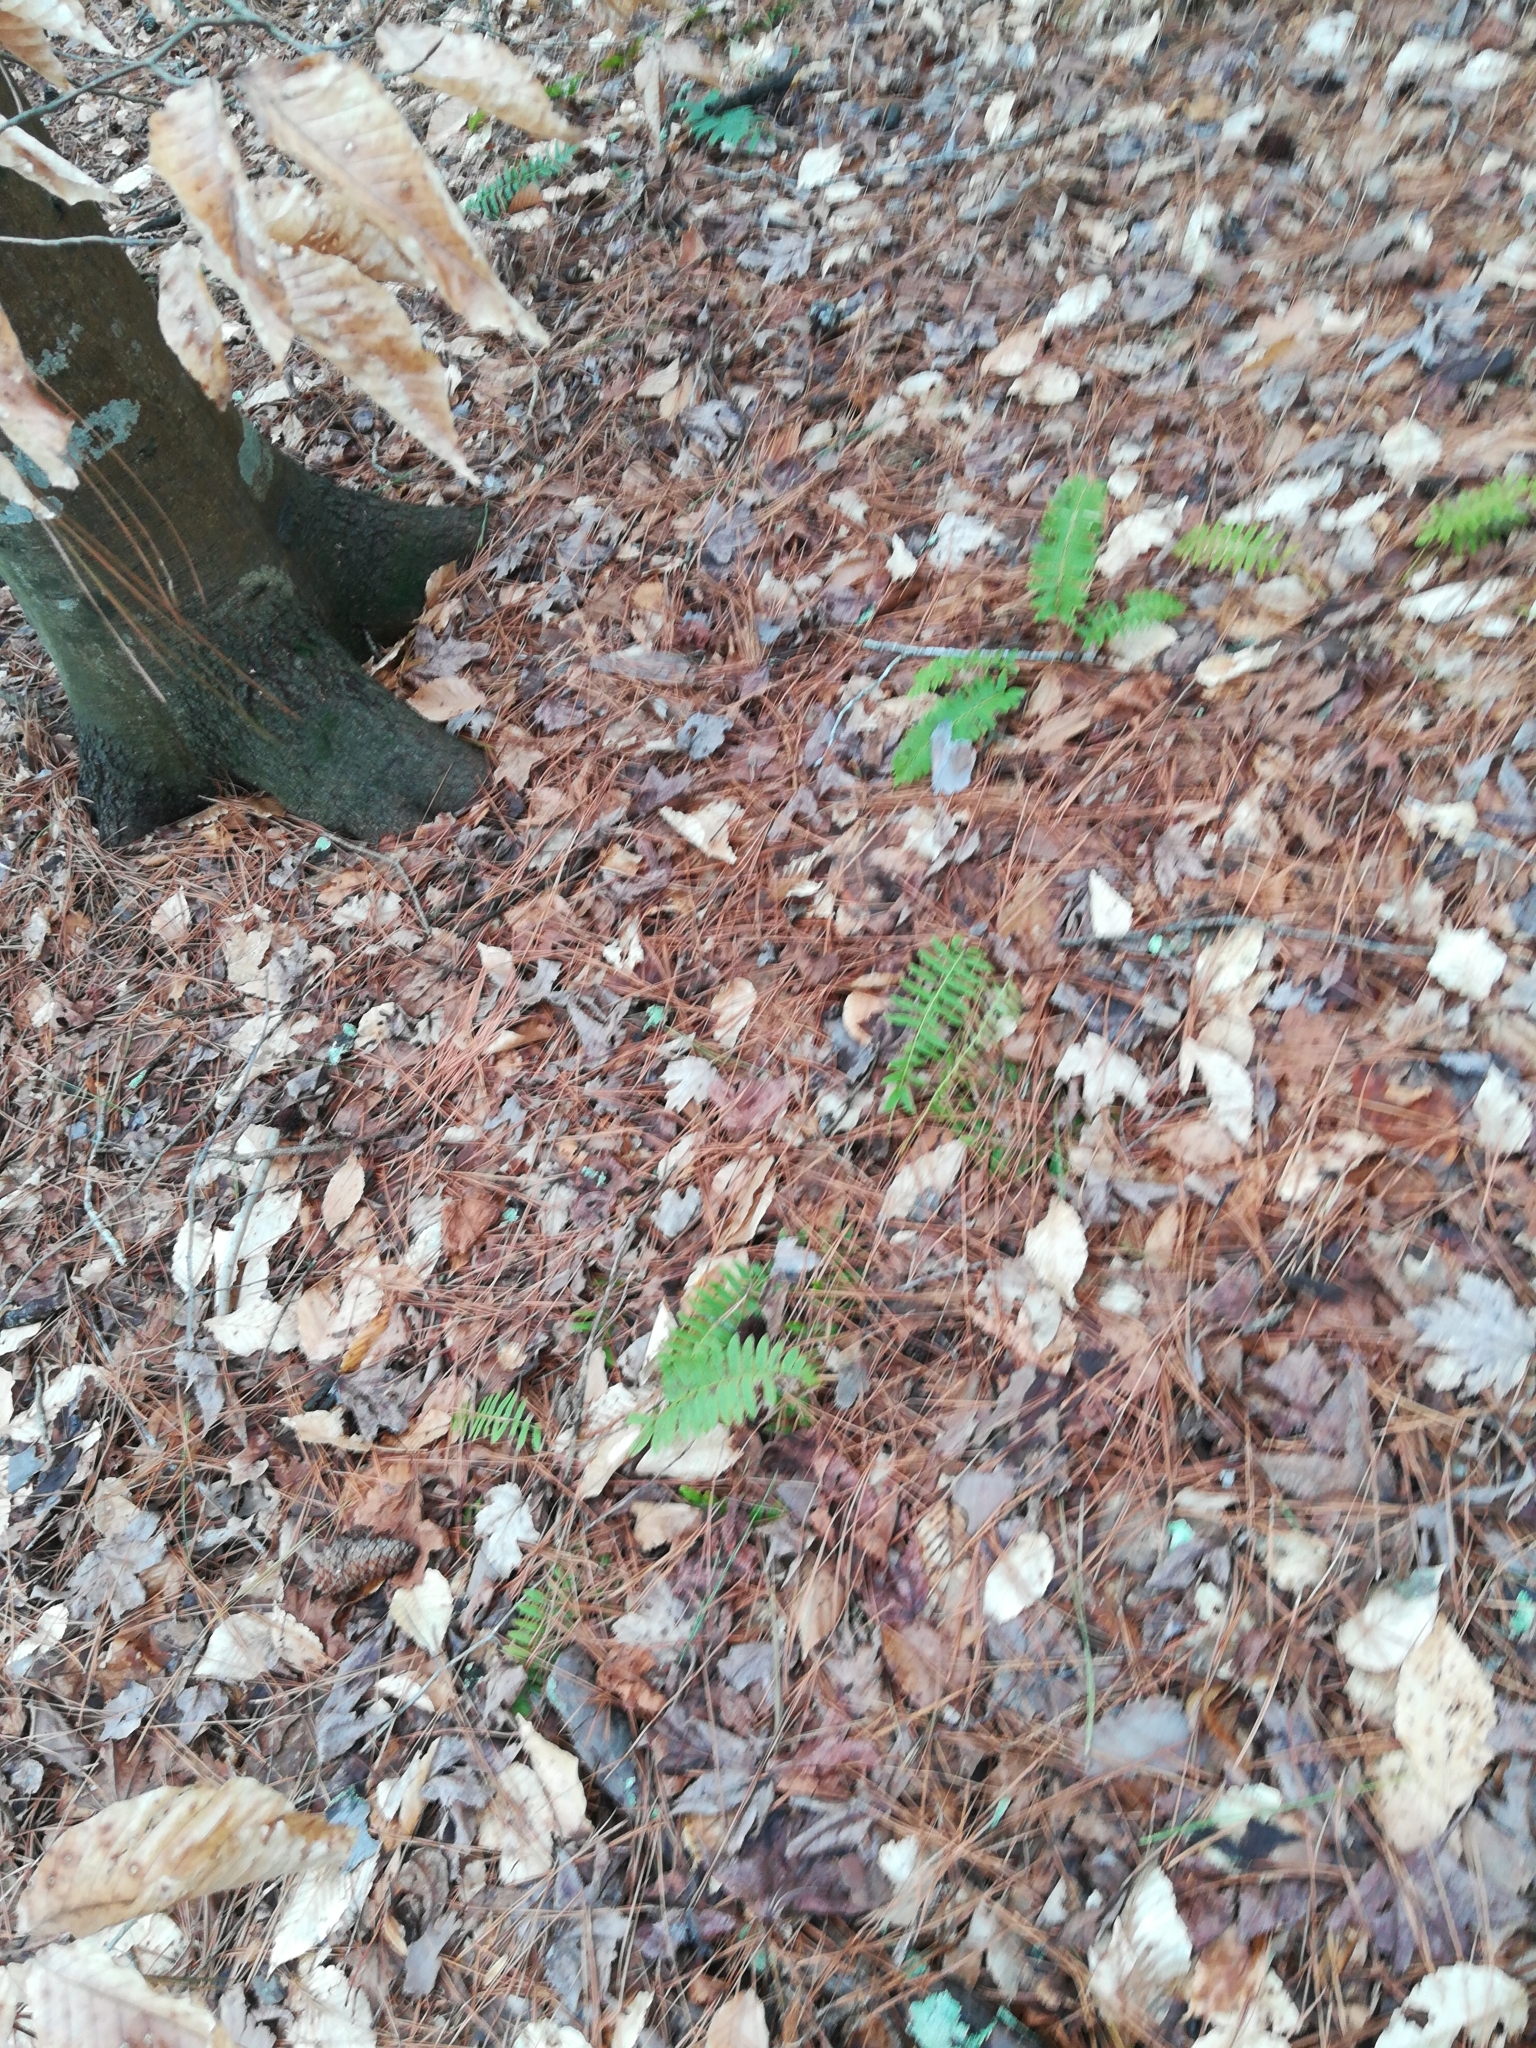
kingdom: Plantae
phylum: Tracheophyta
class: Polypodiopsida
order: Polypodiales
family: Dryopteridaceae
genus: Polystichum
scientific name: Polystichum acrostichoides
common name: Christmas fern
